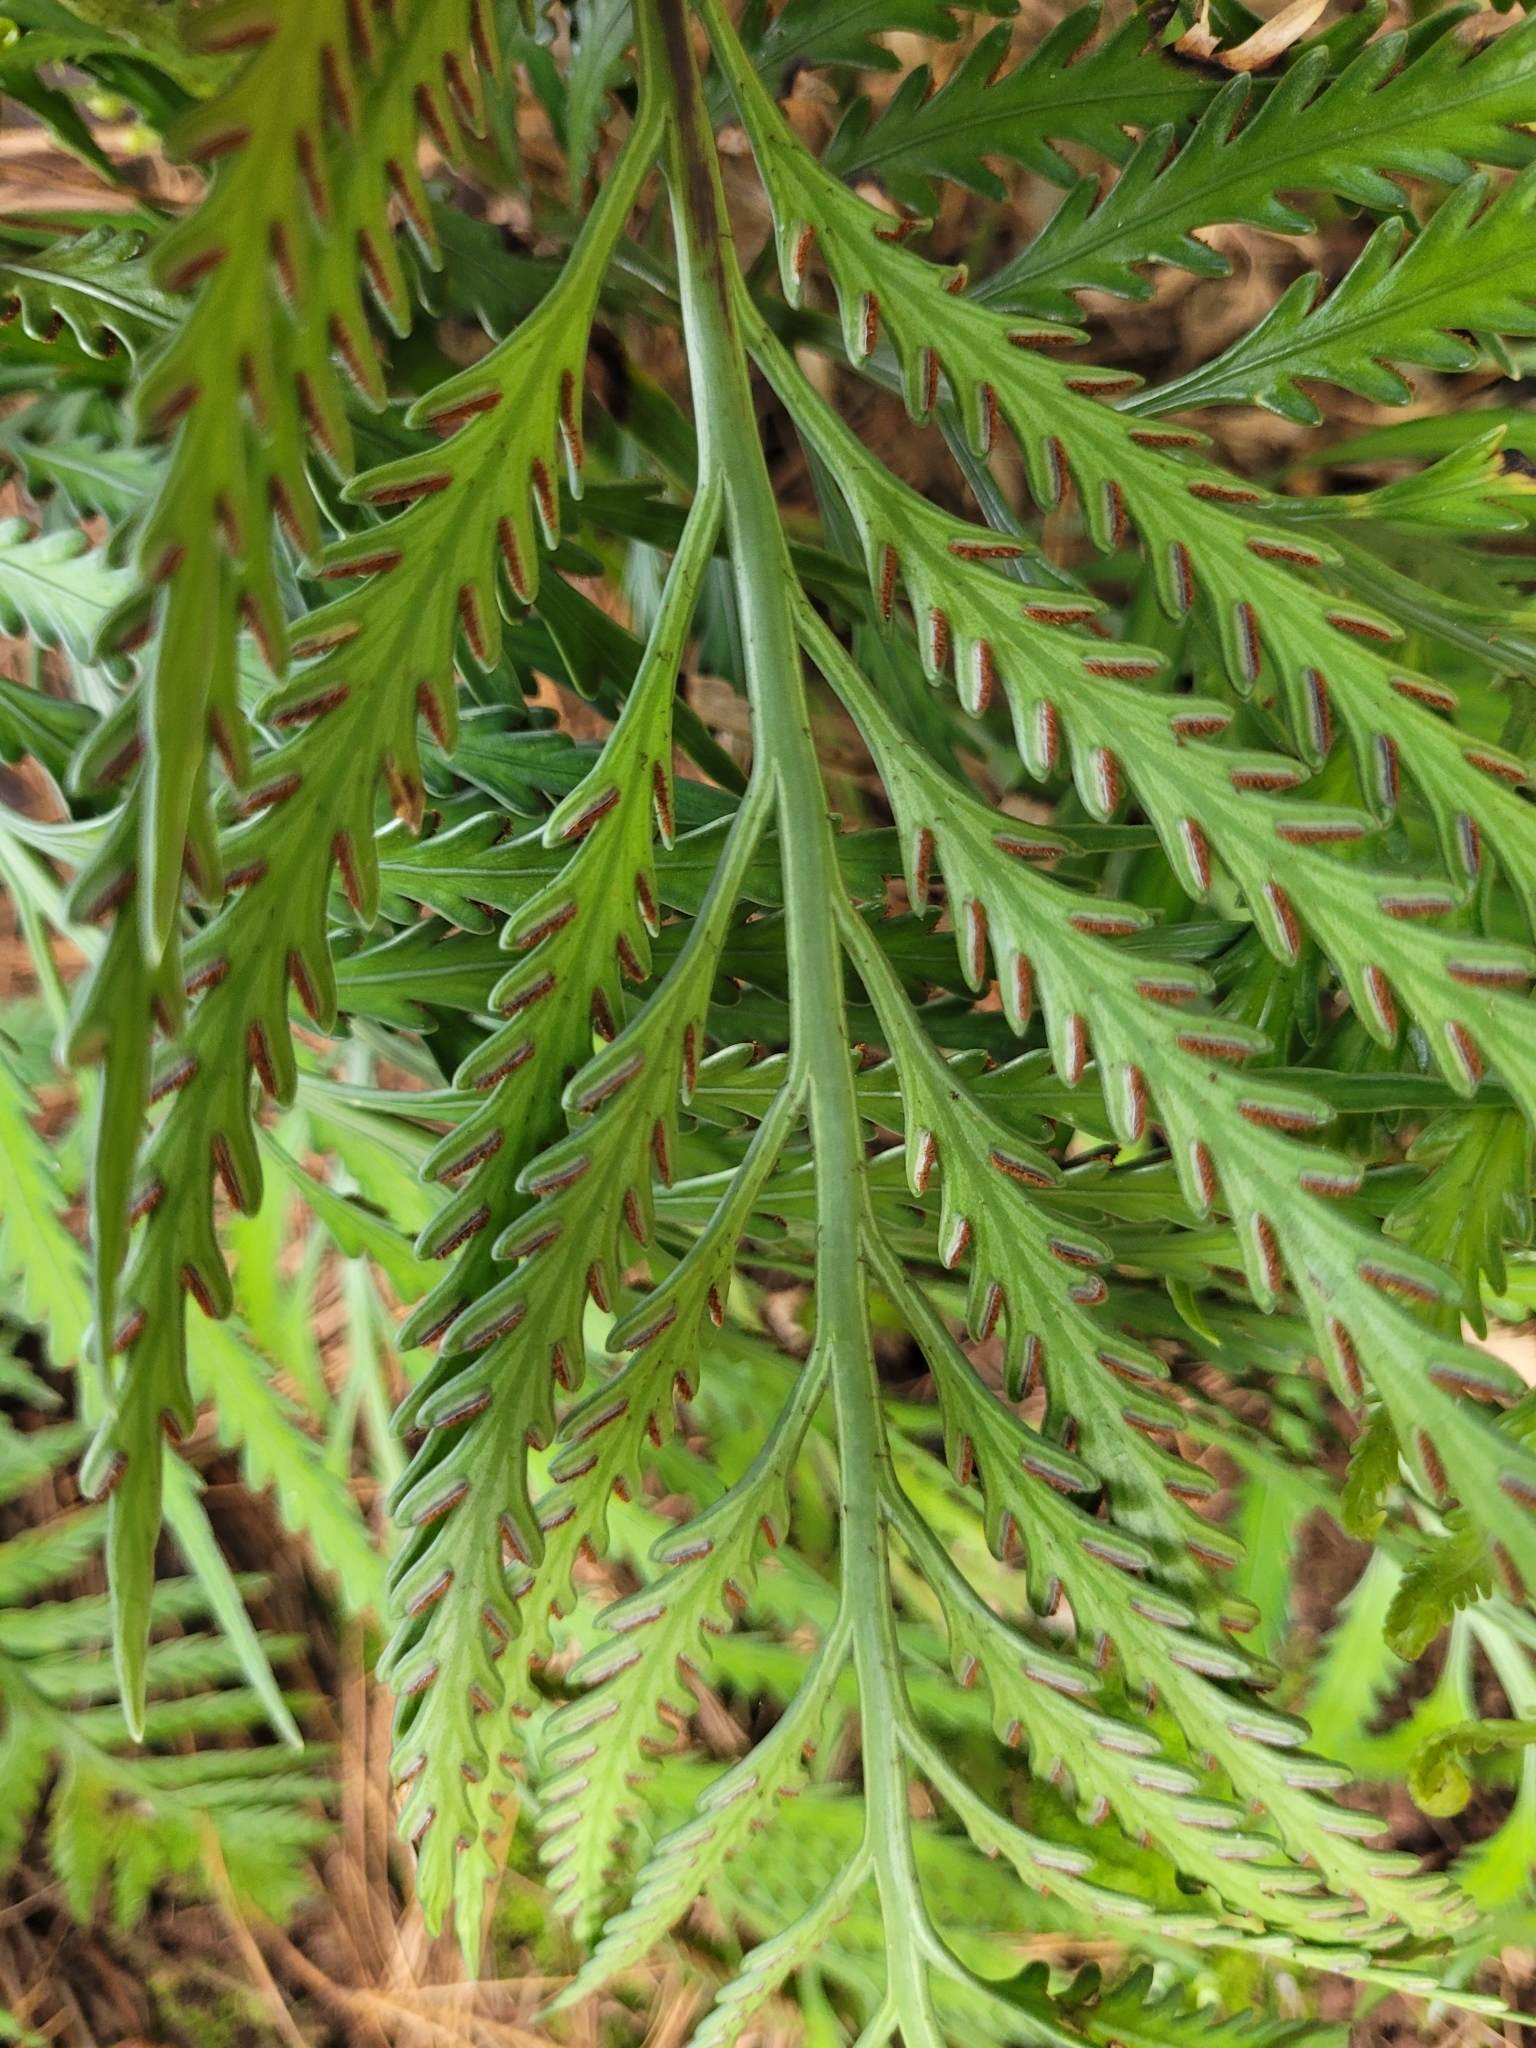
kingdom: Plantae
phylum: Tracheophyta
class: Polypodiopsida
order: Polypodiales
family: Aspleniaceae
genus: Asplenium
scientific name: Asplenium flaccidum
